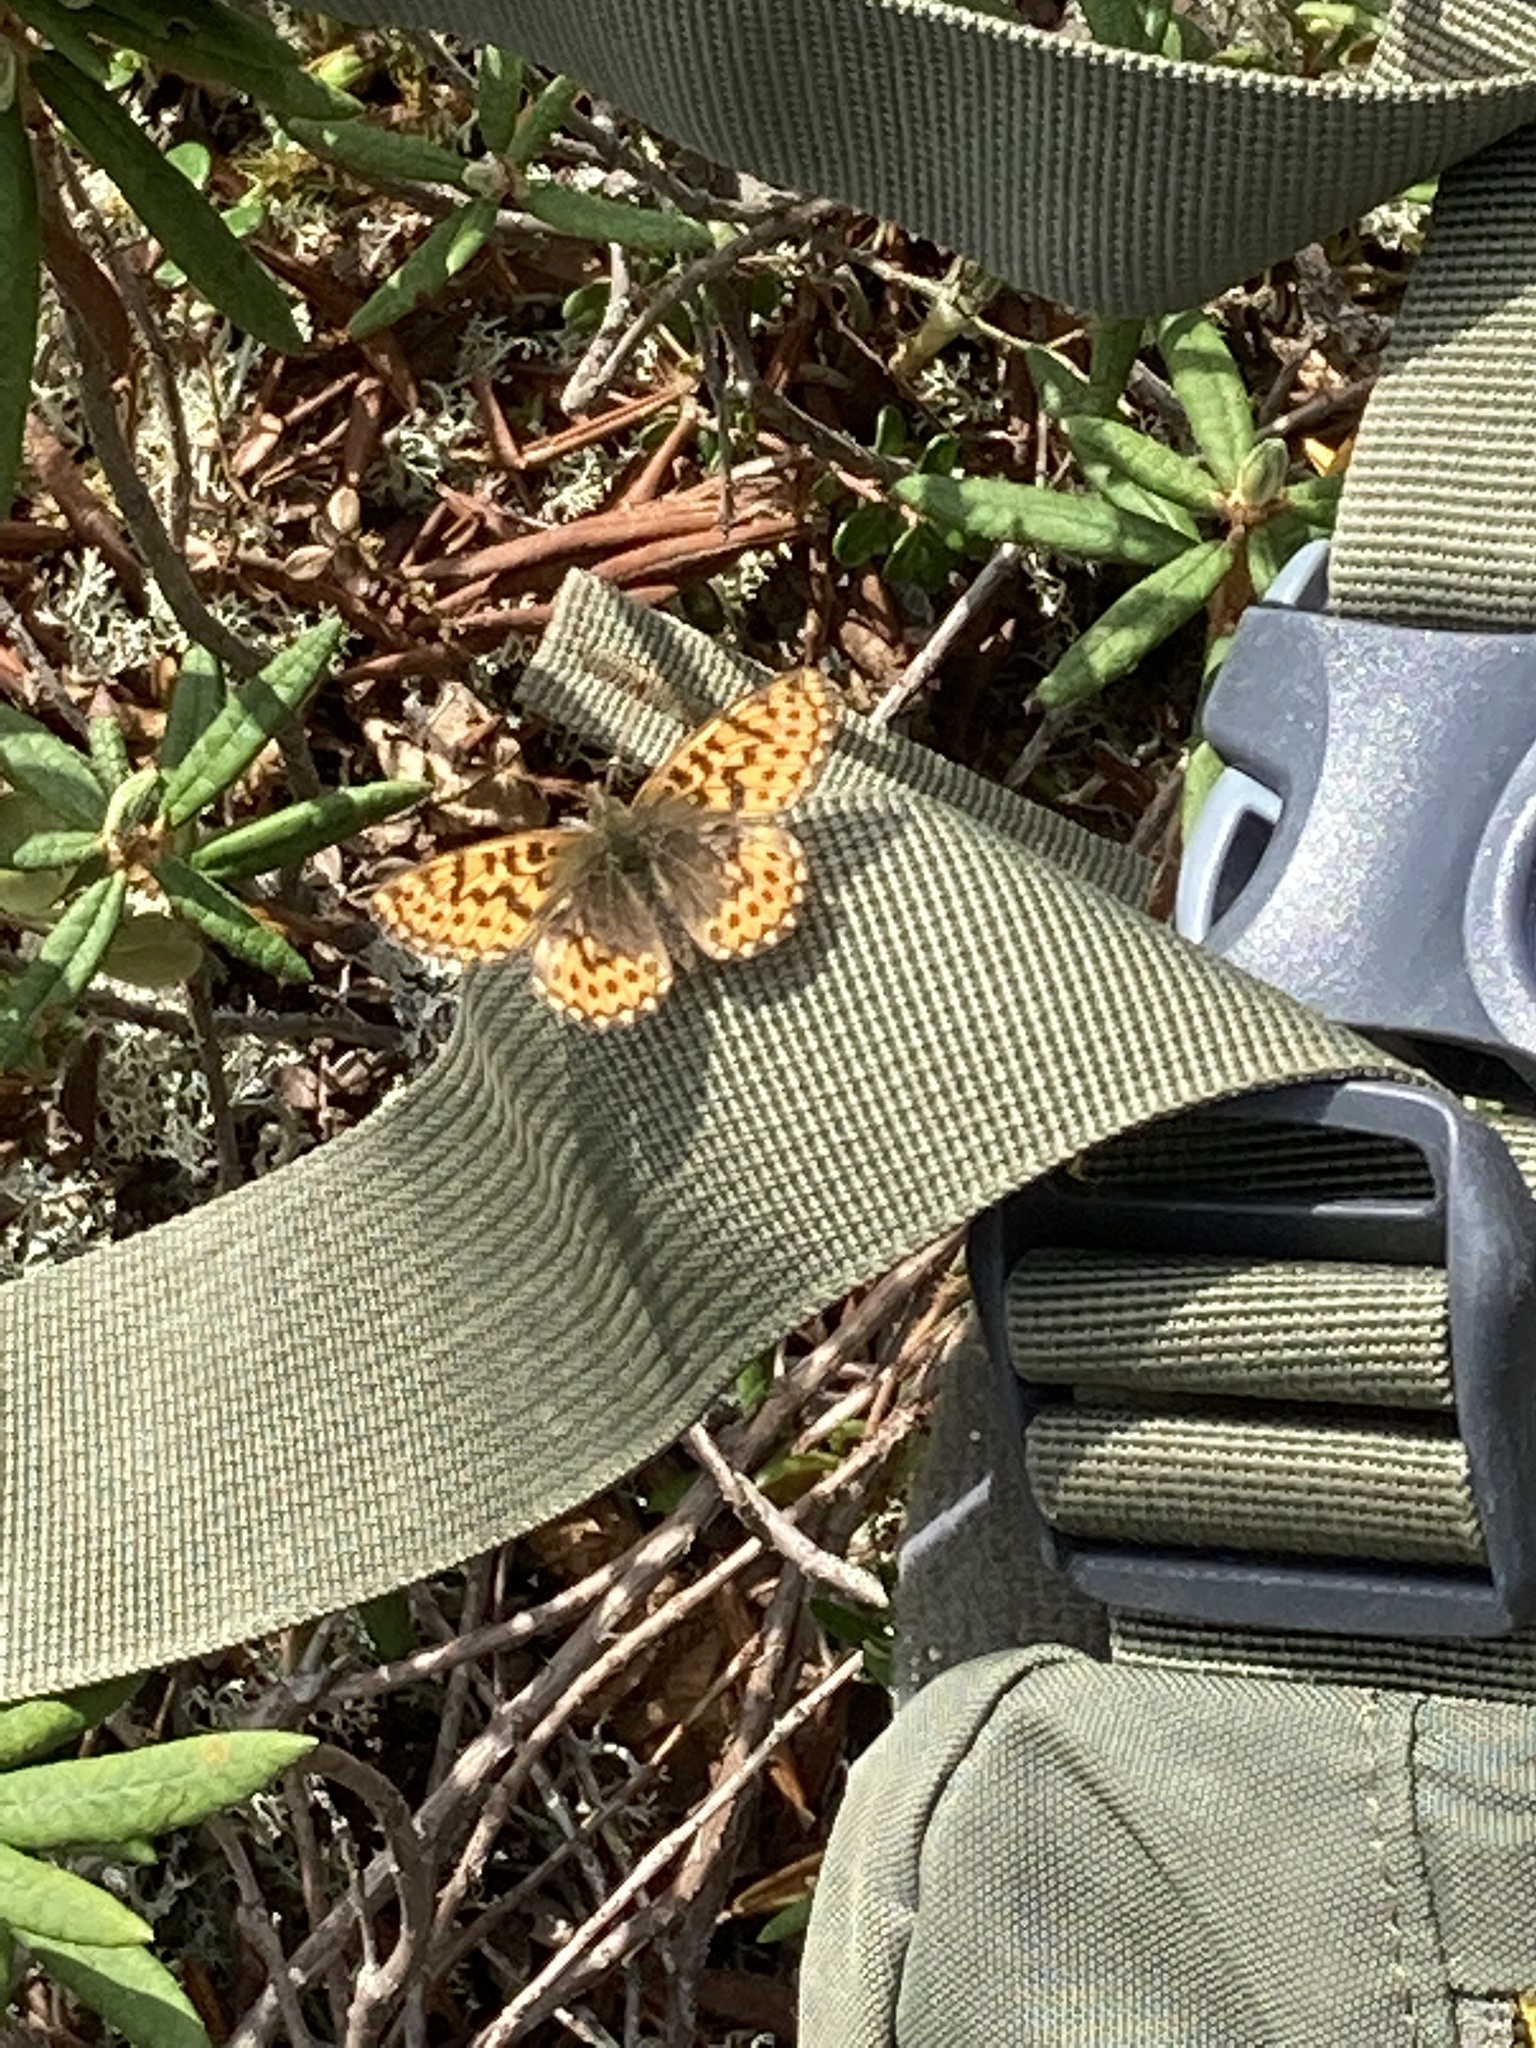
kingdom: Animalia
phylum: Arthropoda
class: Insecta
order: Lepidoptera
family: Nymphalidae
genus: Boloria
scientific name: Boloria freija
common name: Freija fritillary
